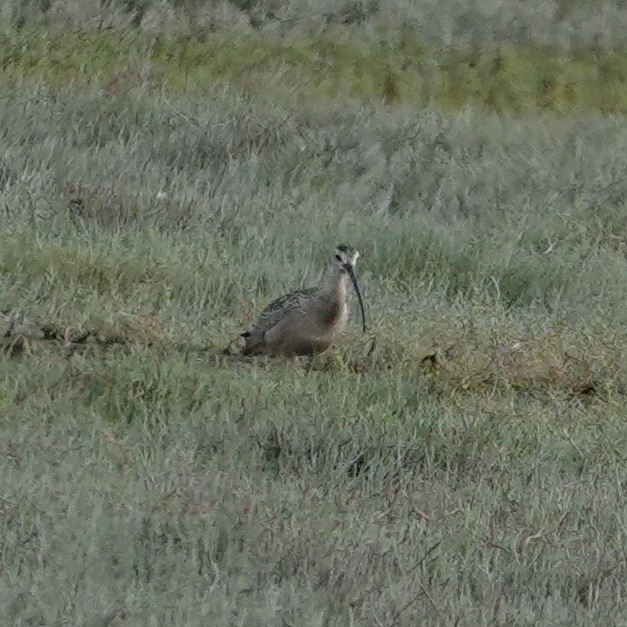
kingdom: Animalia
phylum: Chordata
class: Aves
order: Charadriiformes
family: Scolopacidae
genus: Numenius
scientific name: Numenius americanus
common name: Long-billed curlew
